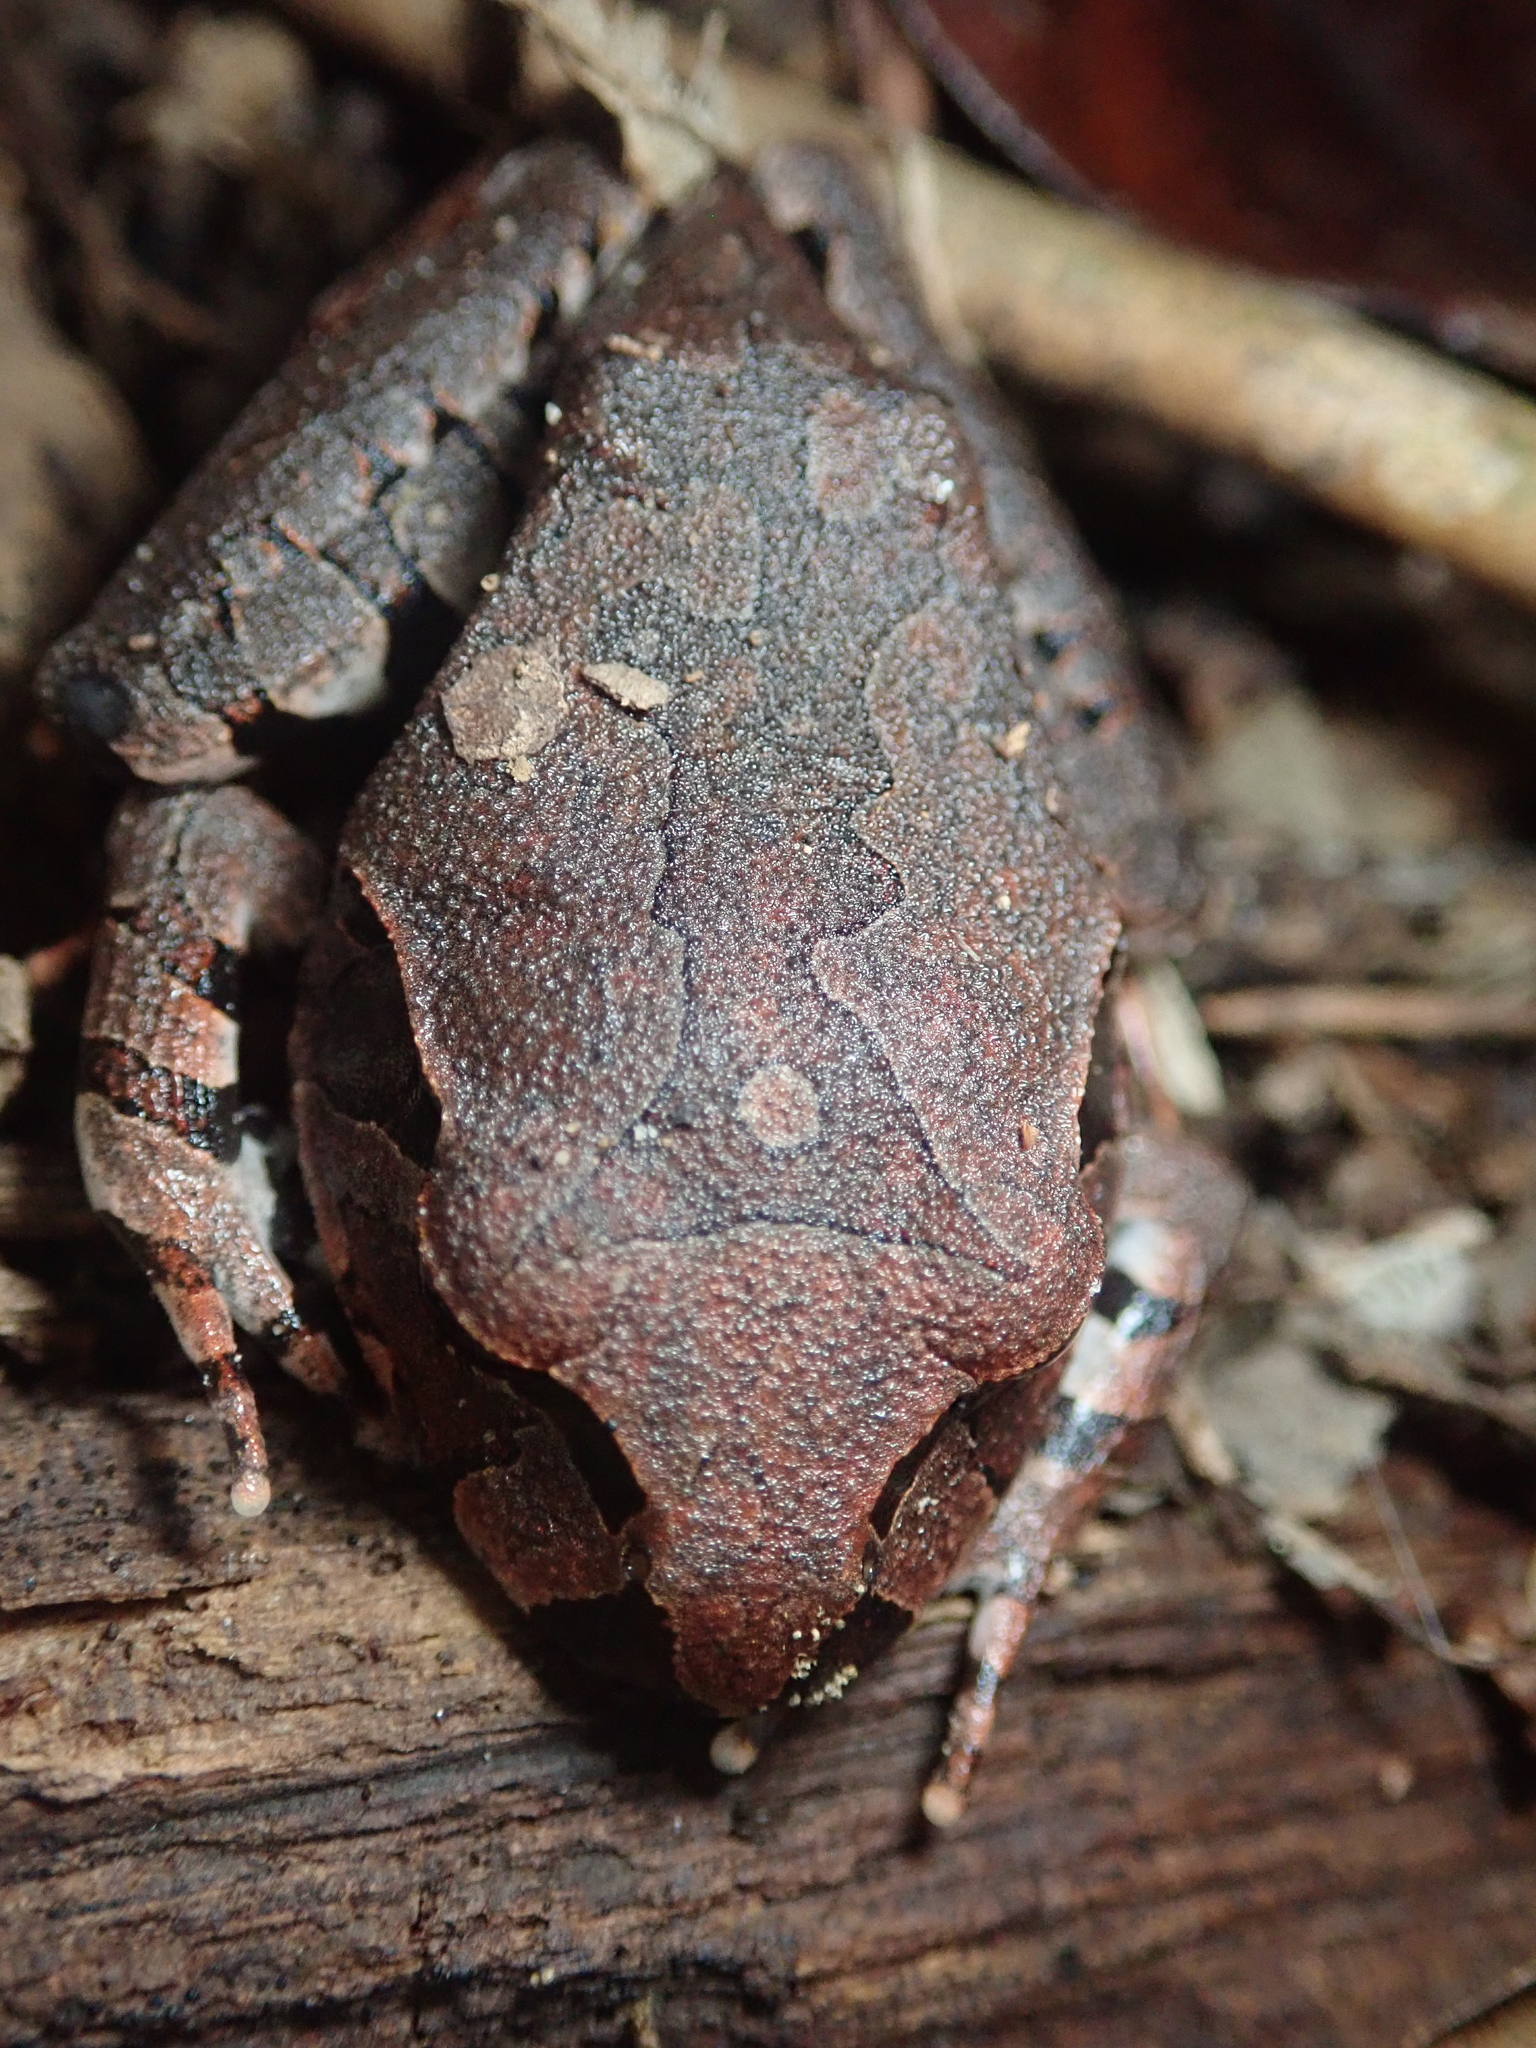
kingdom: Animalia
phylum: Chordata
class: Amphibia
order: Anura
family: Myobatrachidae
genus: Mixophyes
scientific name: Mixophyes schevilli
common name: Northern barred frog
